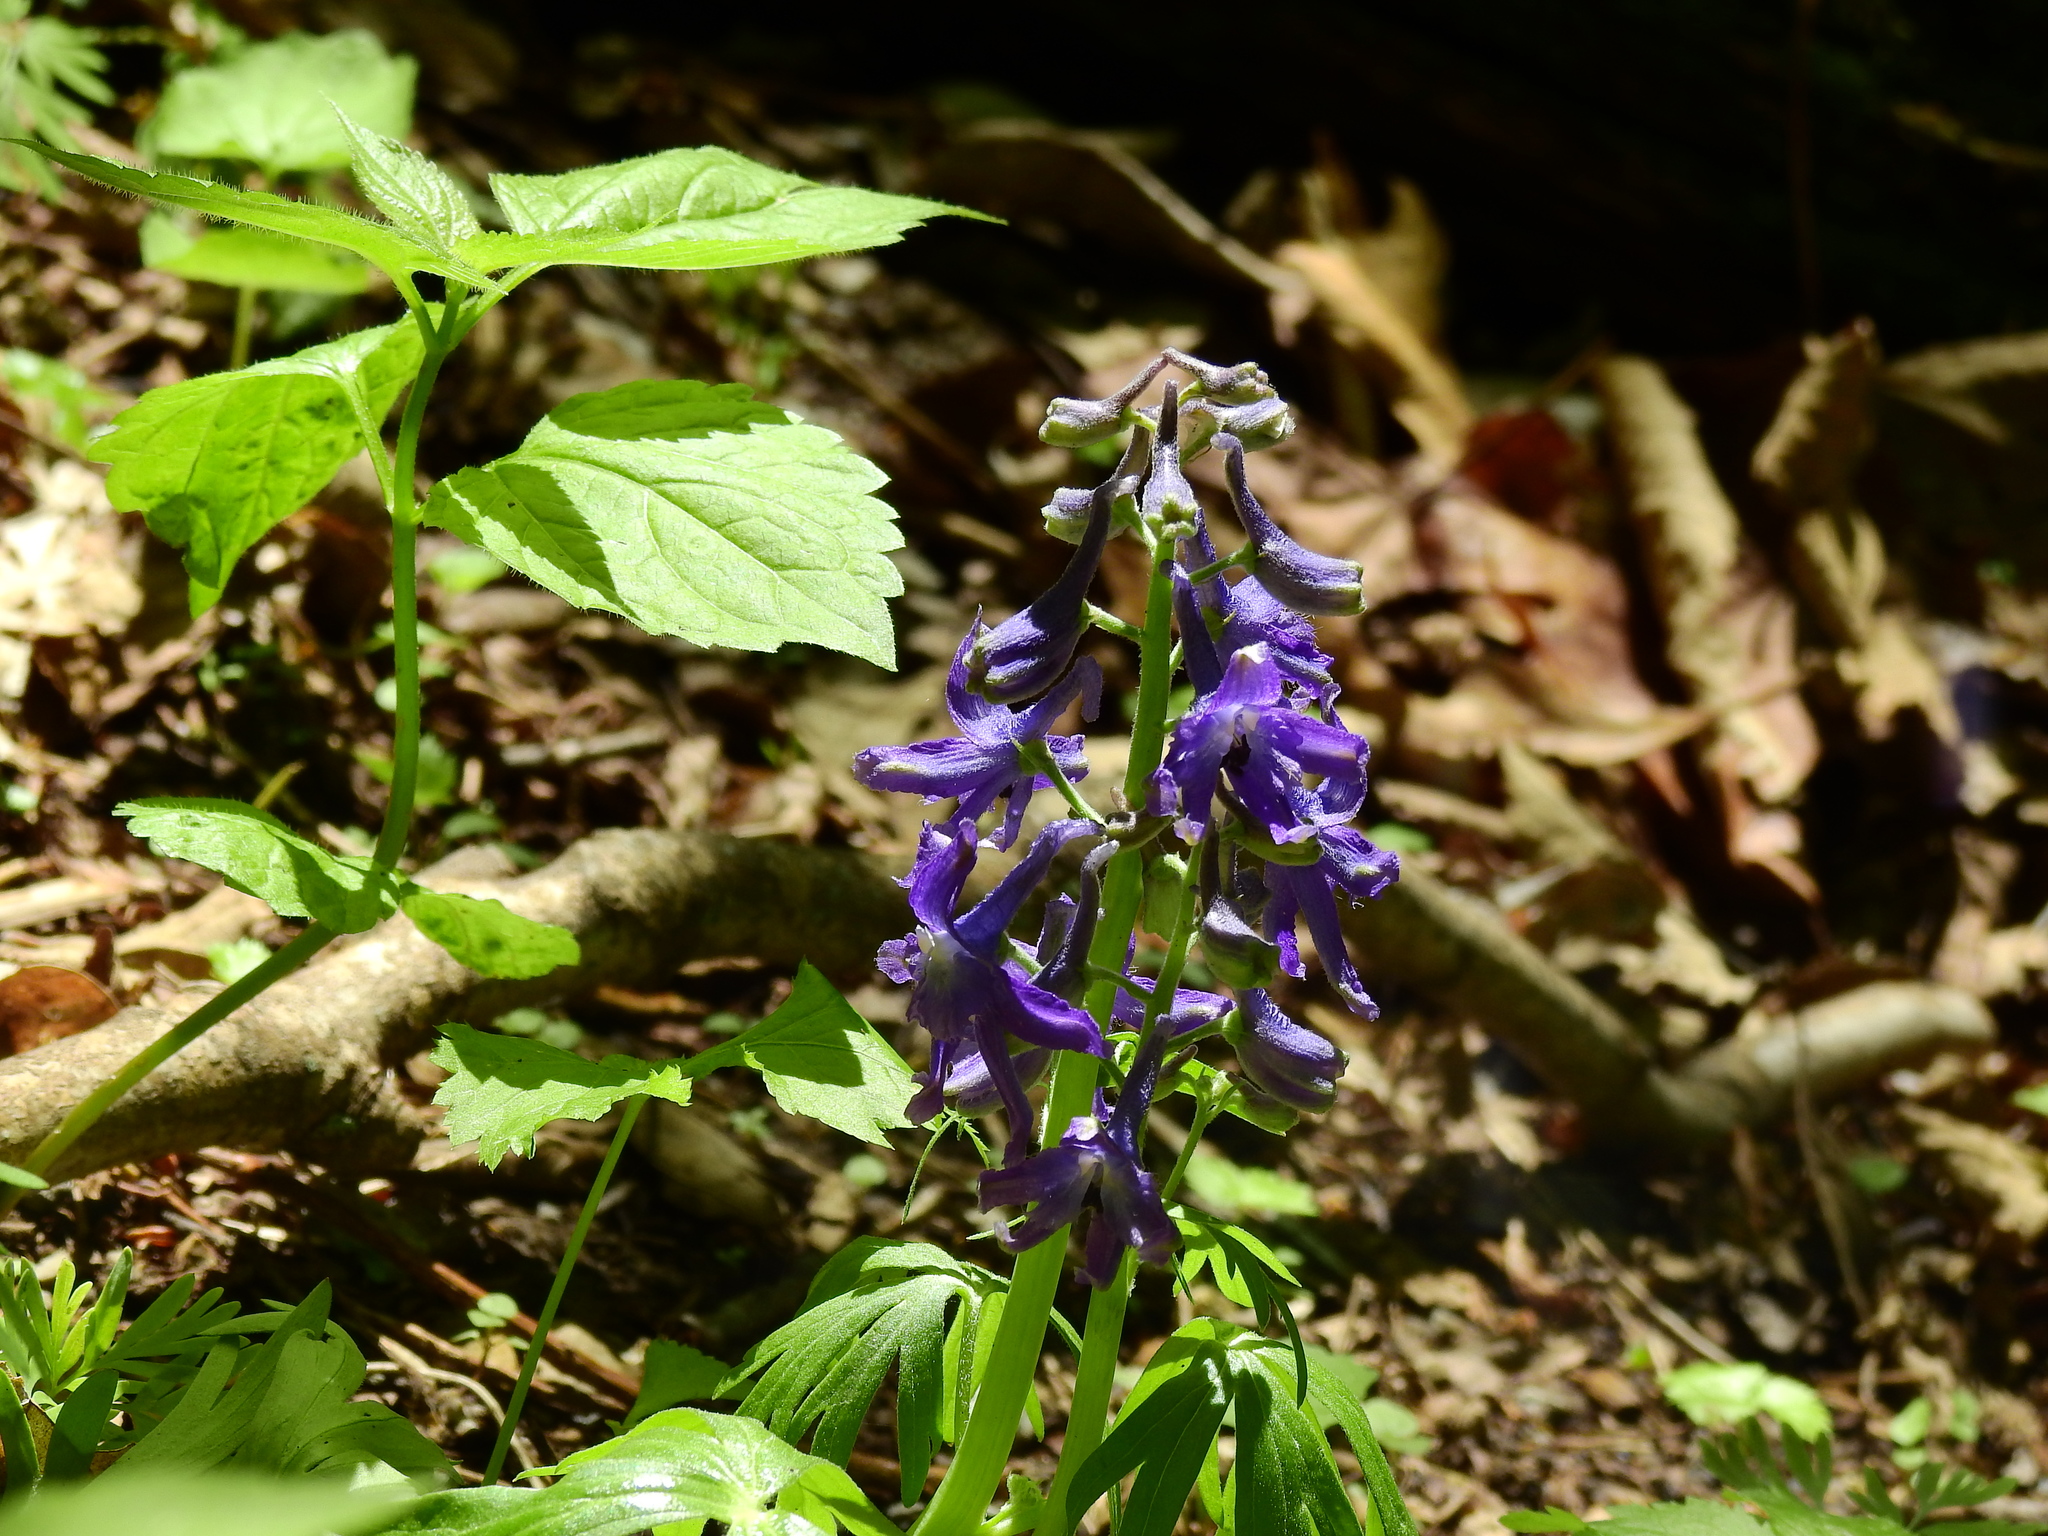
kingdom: Plantae
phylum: Tracheophyta
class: Magnoliopsida
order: Ranunculales
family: Ranunculaceae
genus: Delphinium
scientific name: Delphinium tricorne
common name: Dwarf larkspur
